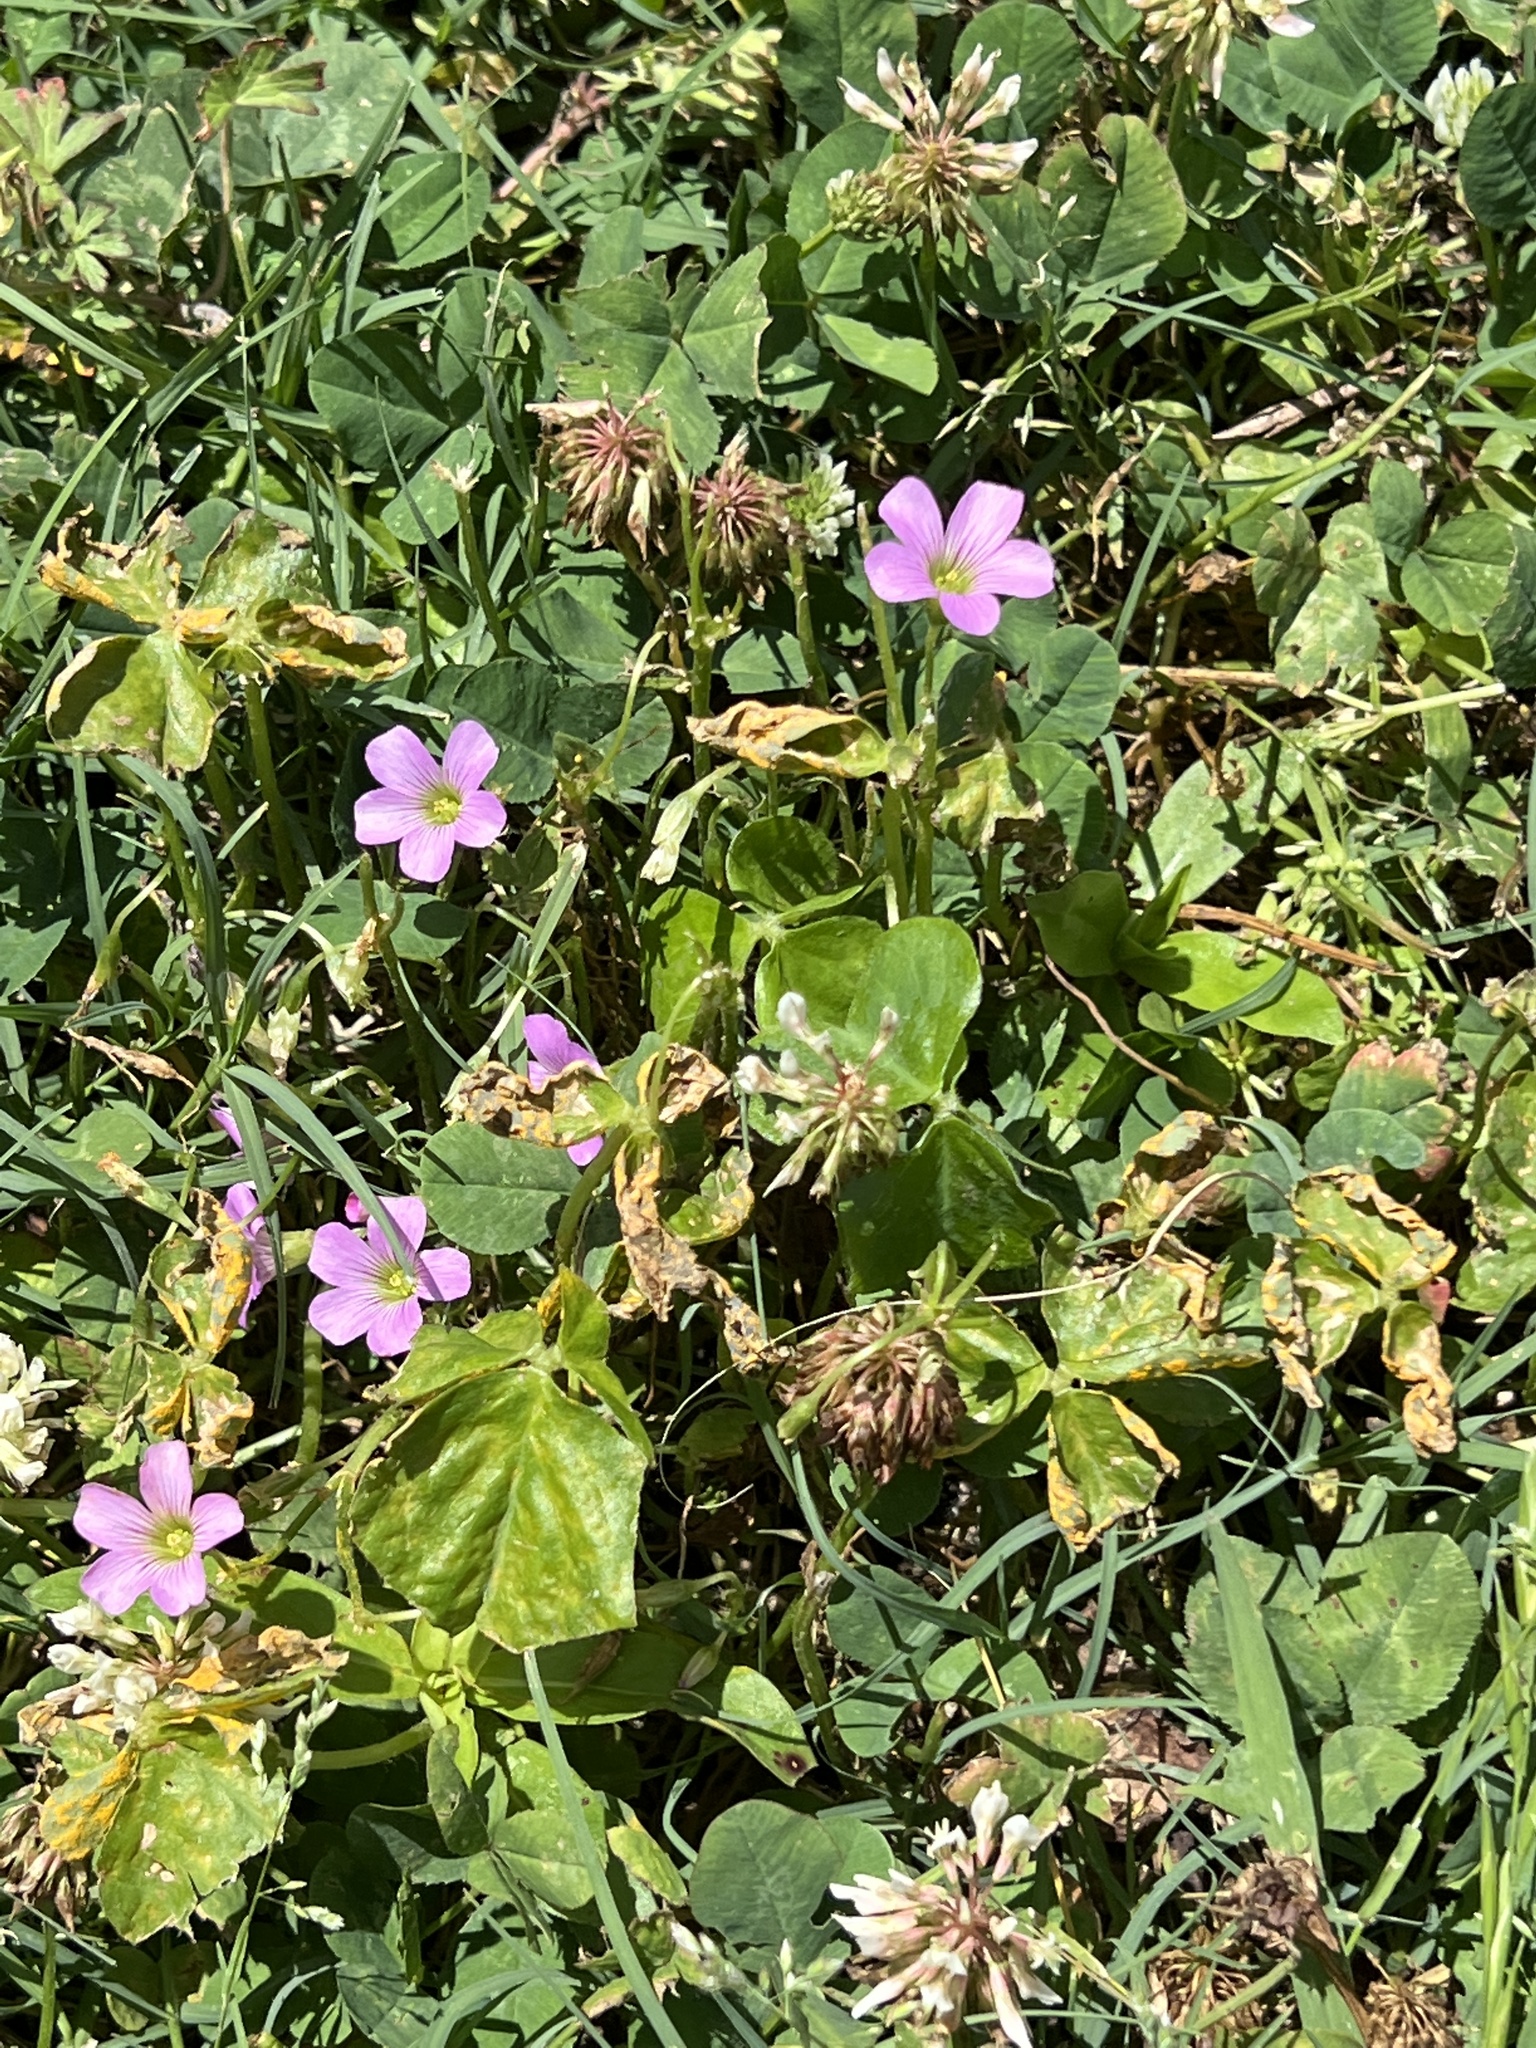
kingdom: Plantae
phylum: Tracheophyta
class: Magnoliopsida
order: Oxalidales
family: Oxalidaceae
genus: Oxalis
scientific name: Oxalis debilis
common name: Large-flowered pink-sorrel
